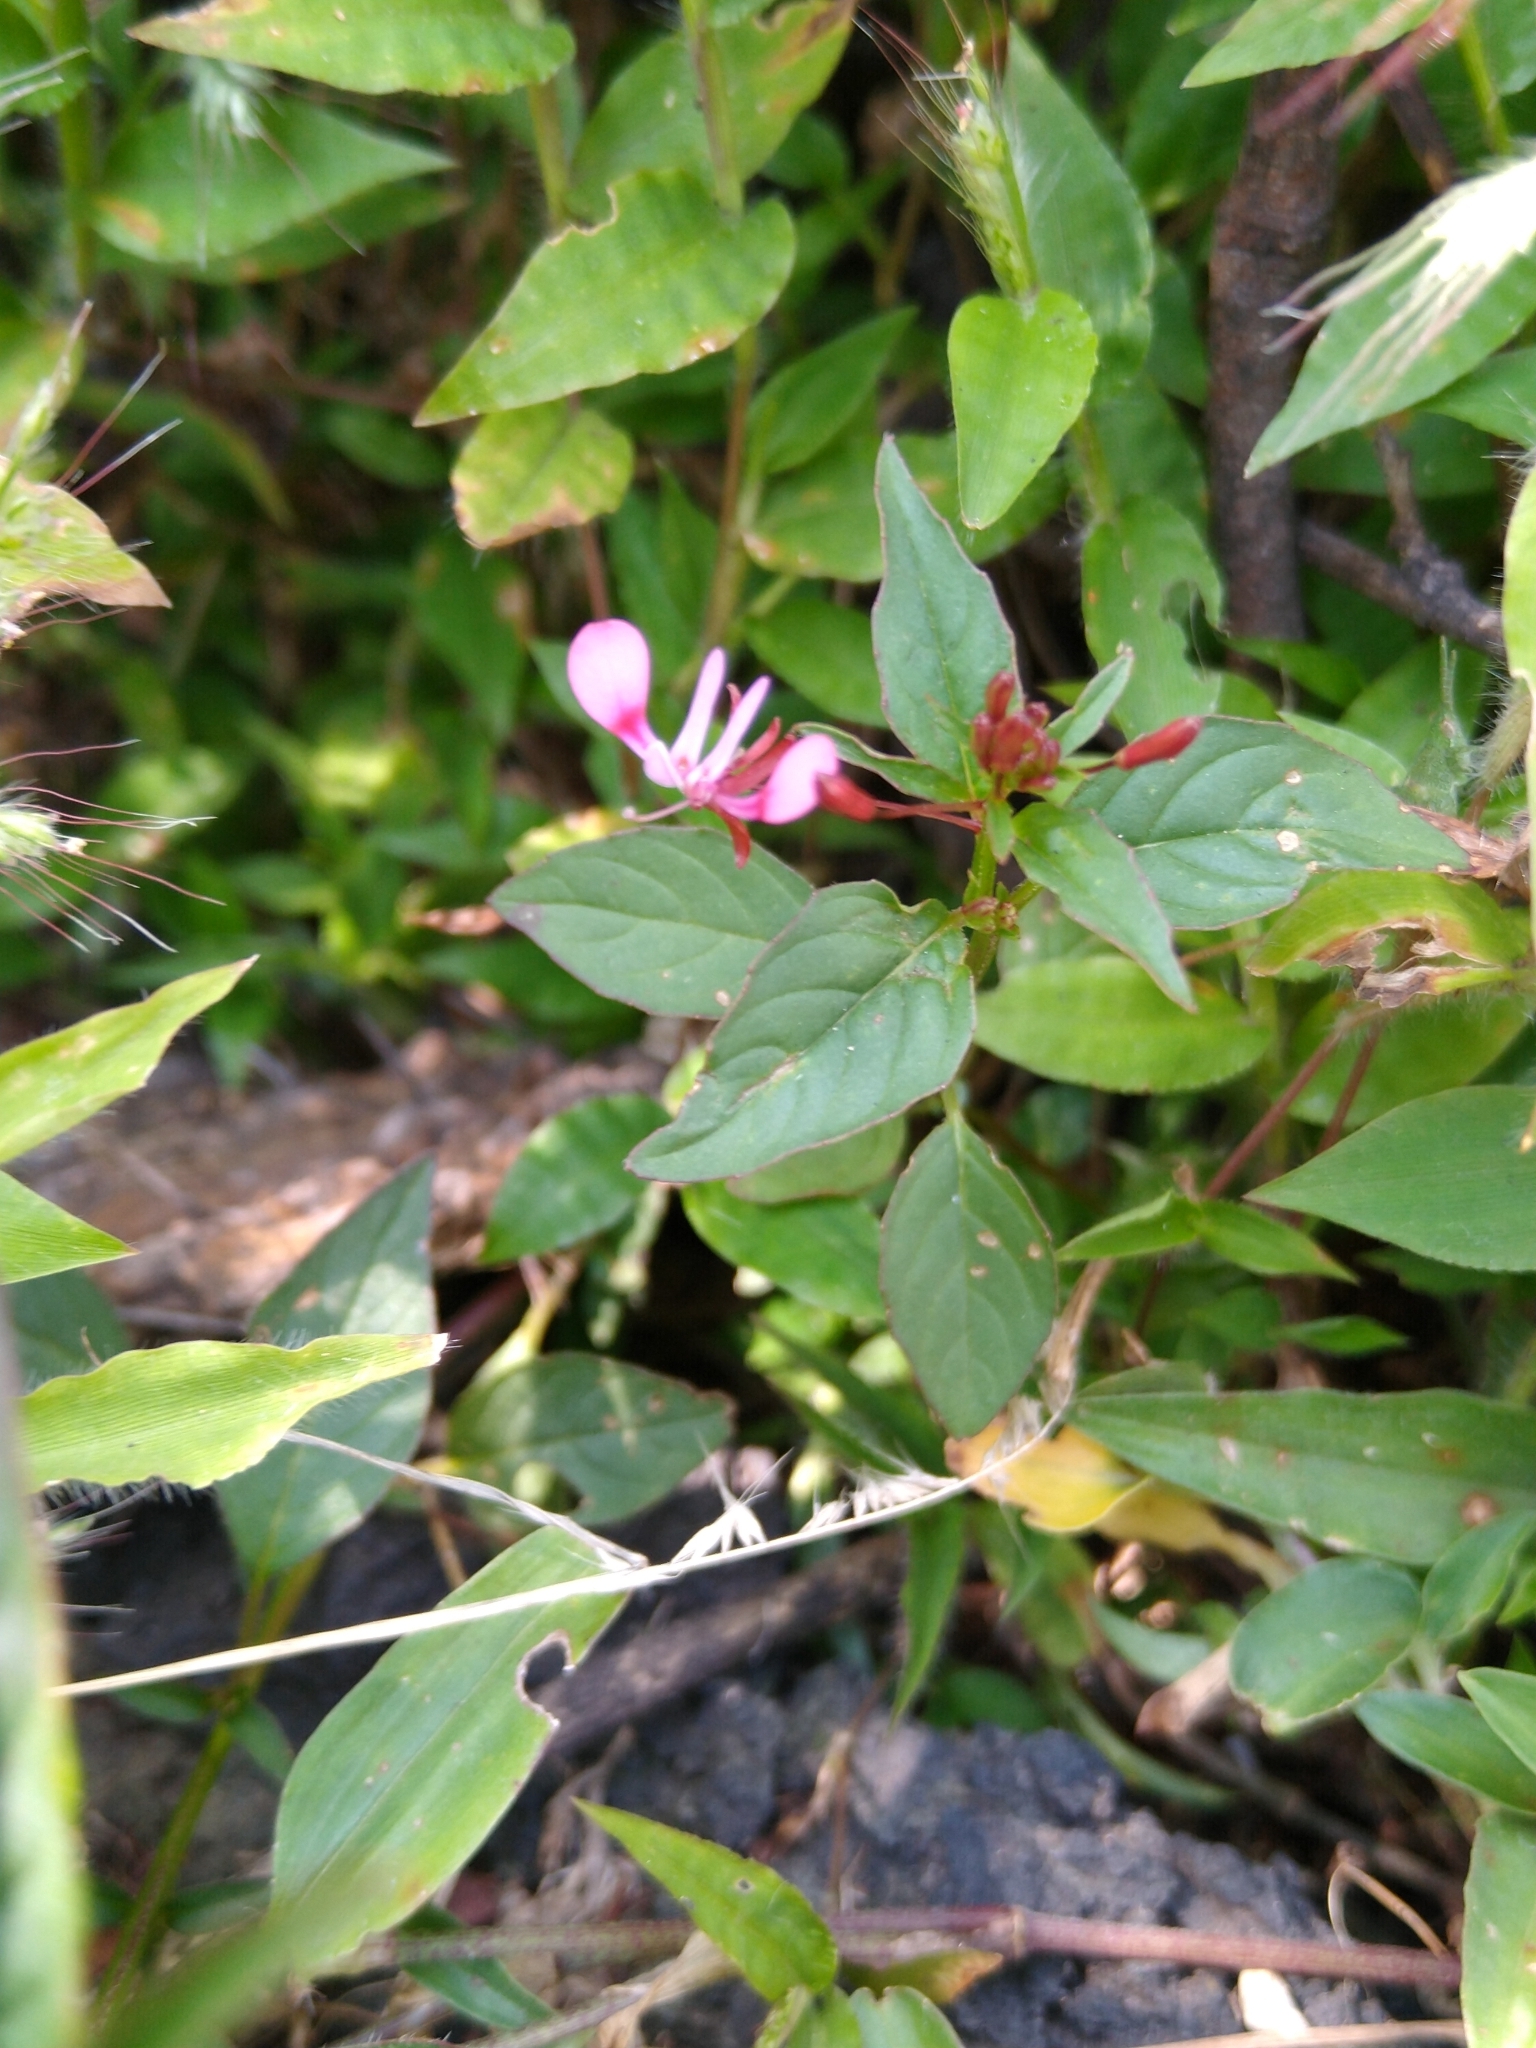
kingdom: Plantae
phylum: Tracheophyta
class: Magnoliopsida
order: Myrtales
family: Onagraceae
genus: Lopezia
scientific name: Lopezia racemosa
